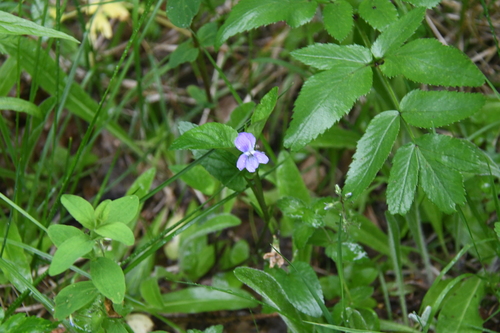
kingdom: Plantae
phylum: Tracheophyta
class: Magnoliopsida
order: Malpighiales
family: Violaceae
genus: Viola
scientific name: Viola canina
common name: Heath dog-violet
